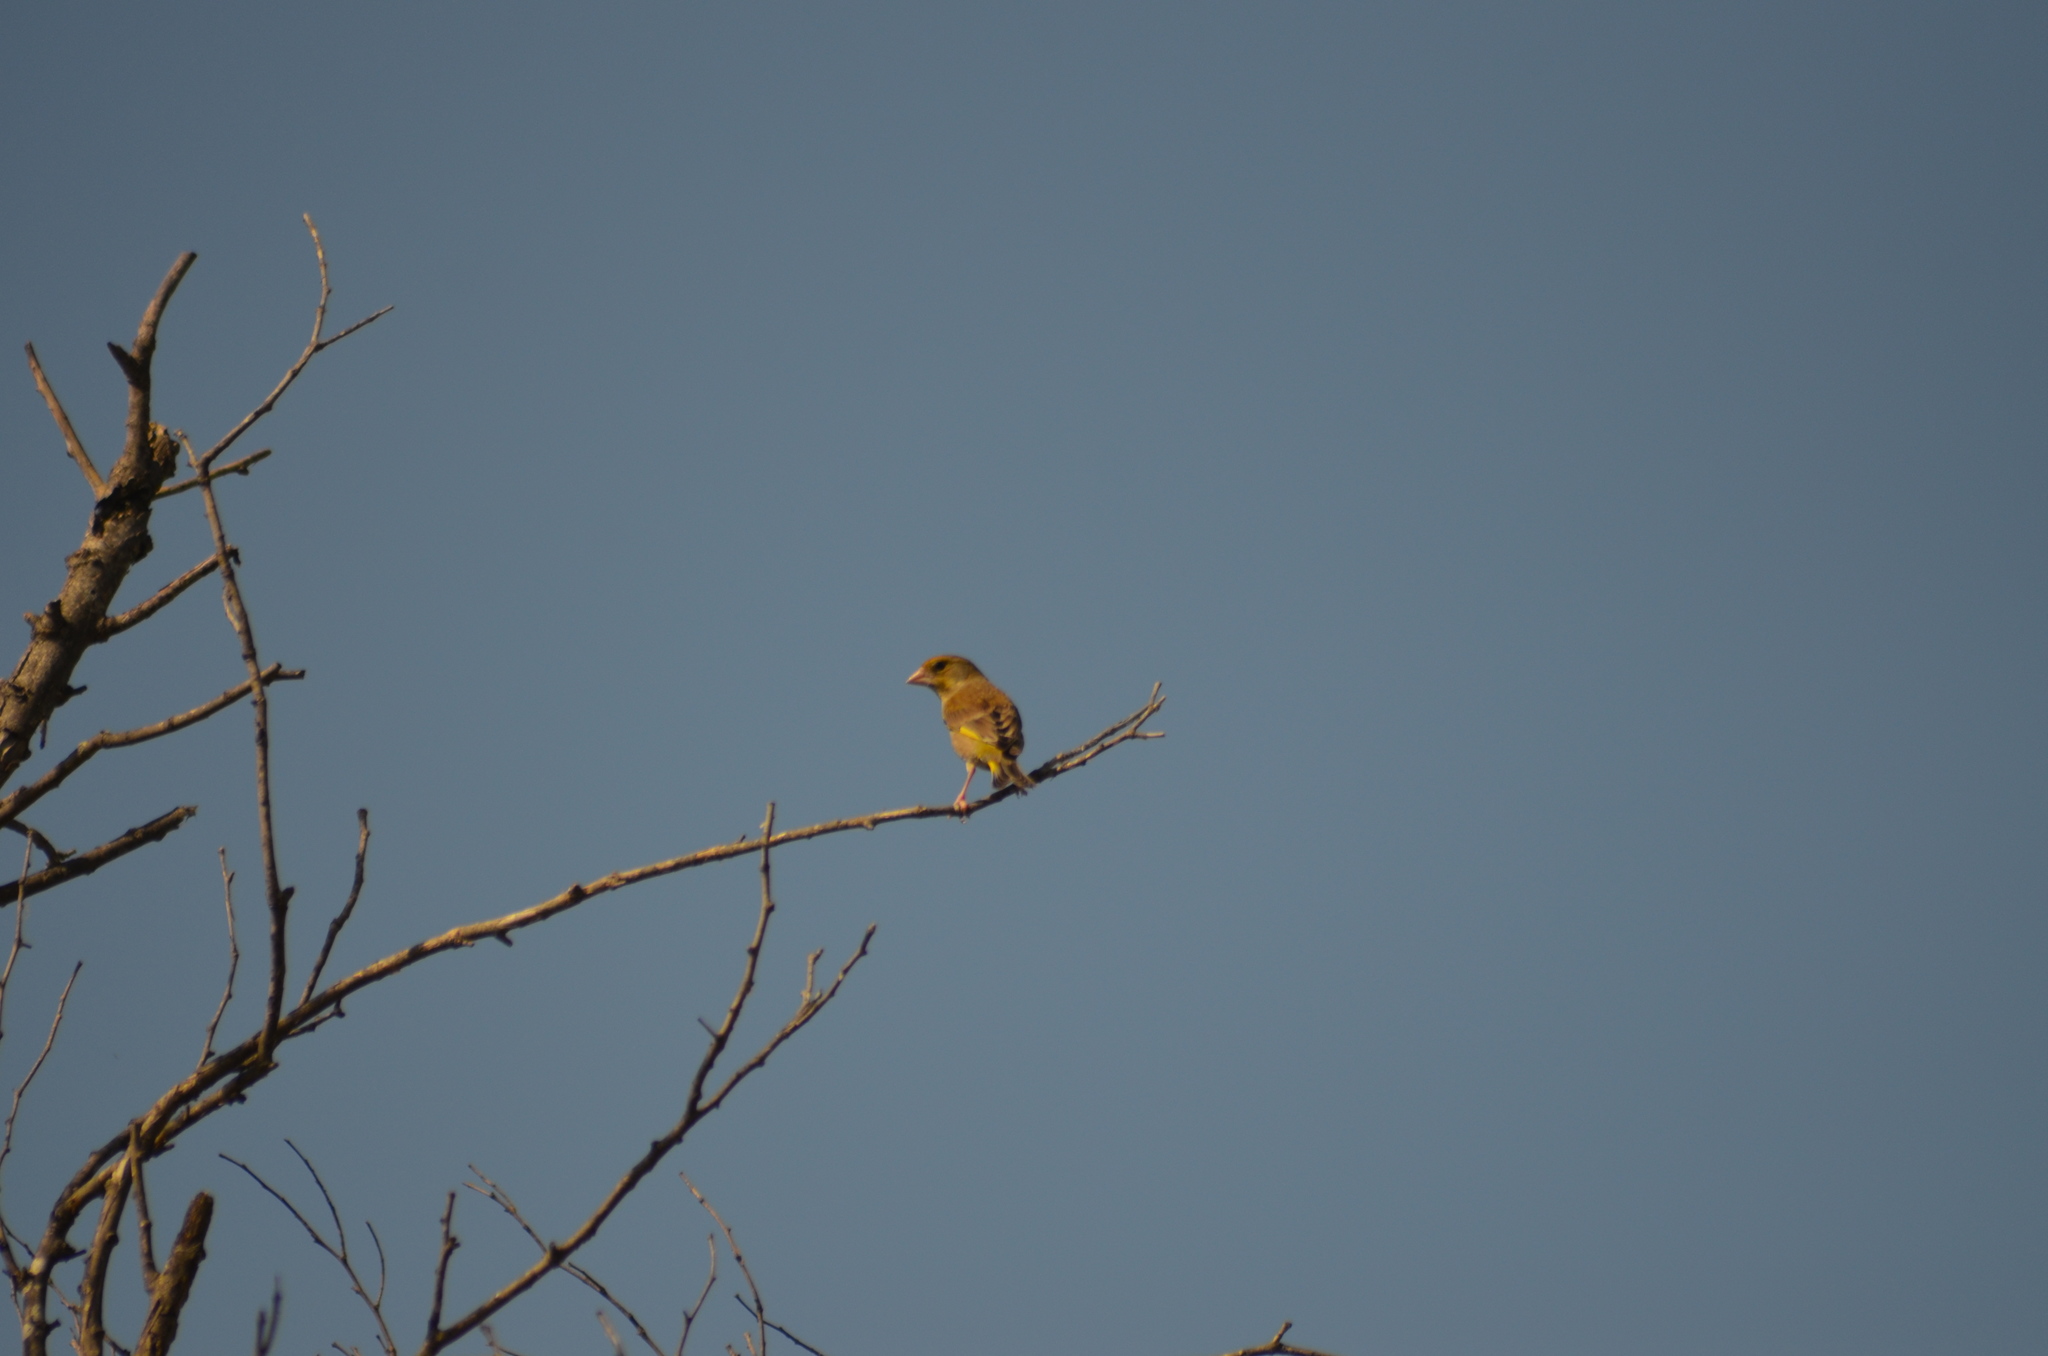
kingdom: Plantae
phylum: Tracheophyta
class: Liliopsida
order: Poales
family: Poaceae
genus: Chloris
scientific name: Chloris chloris
